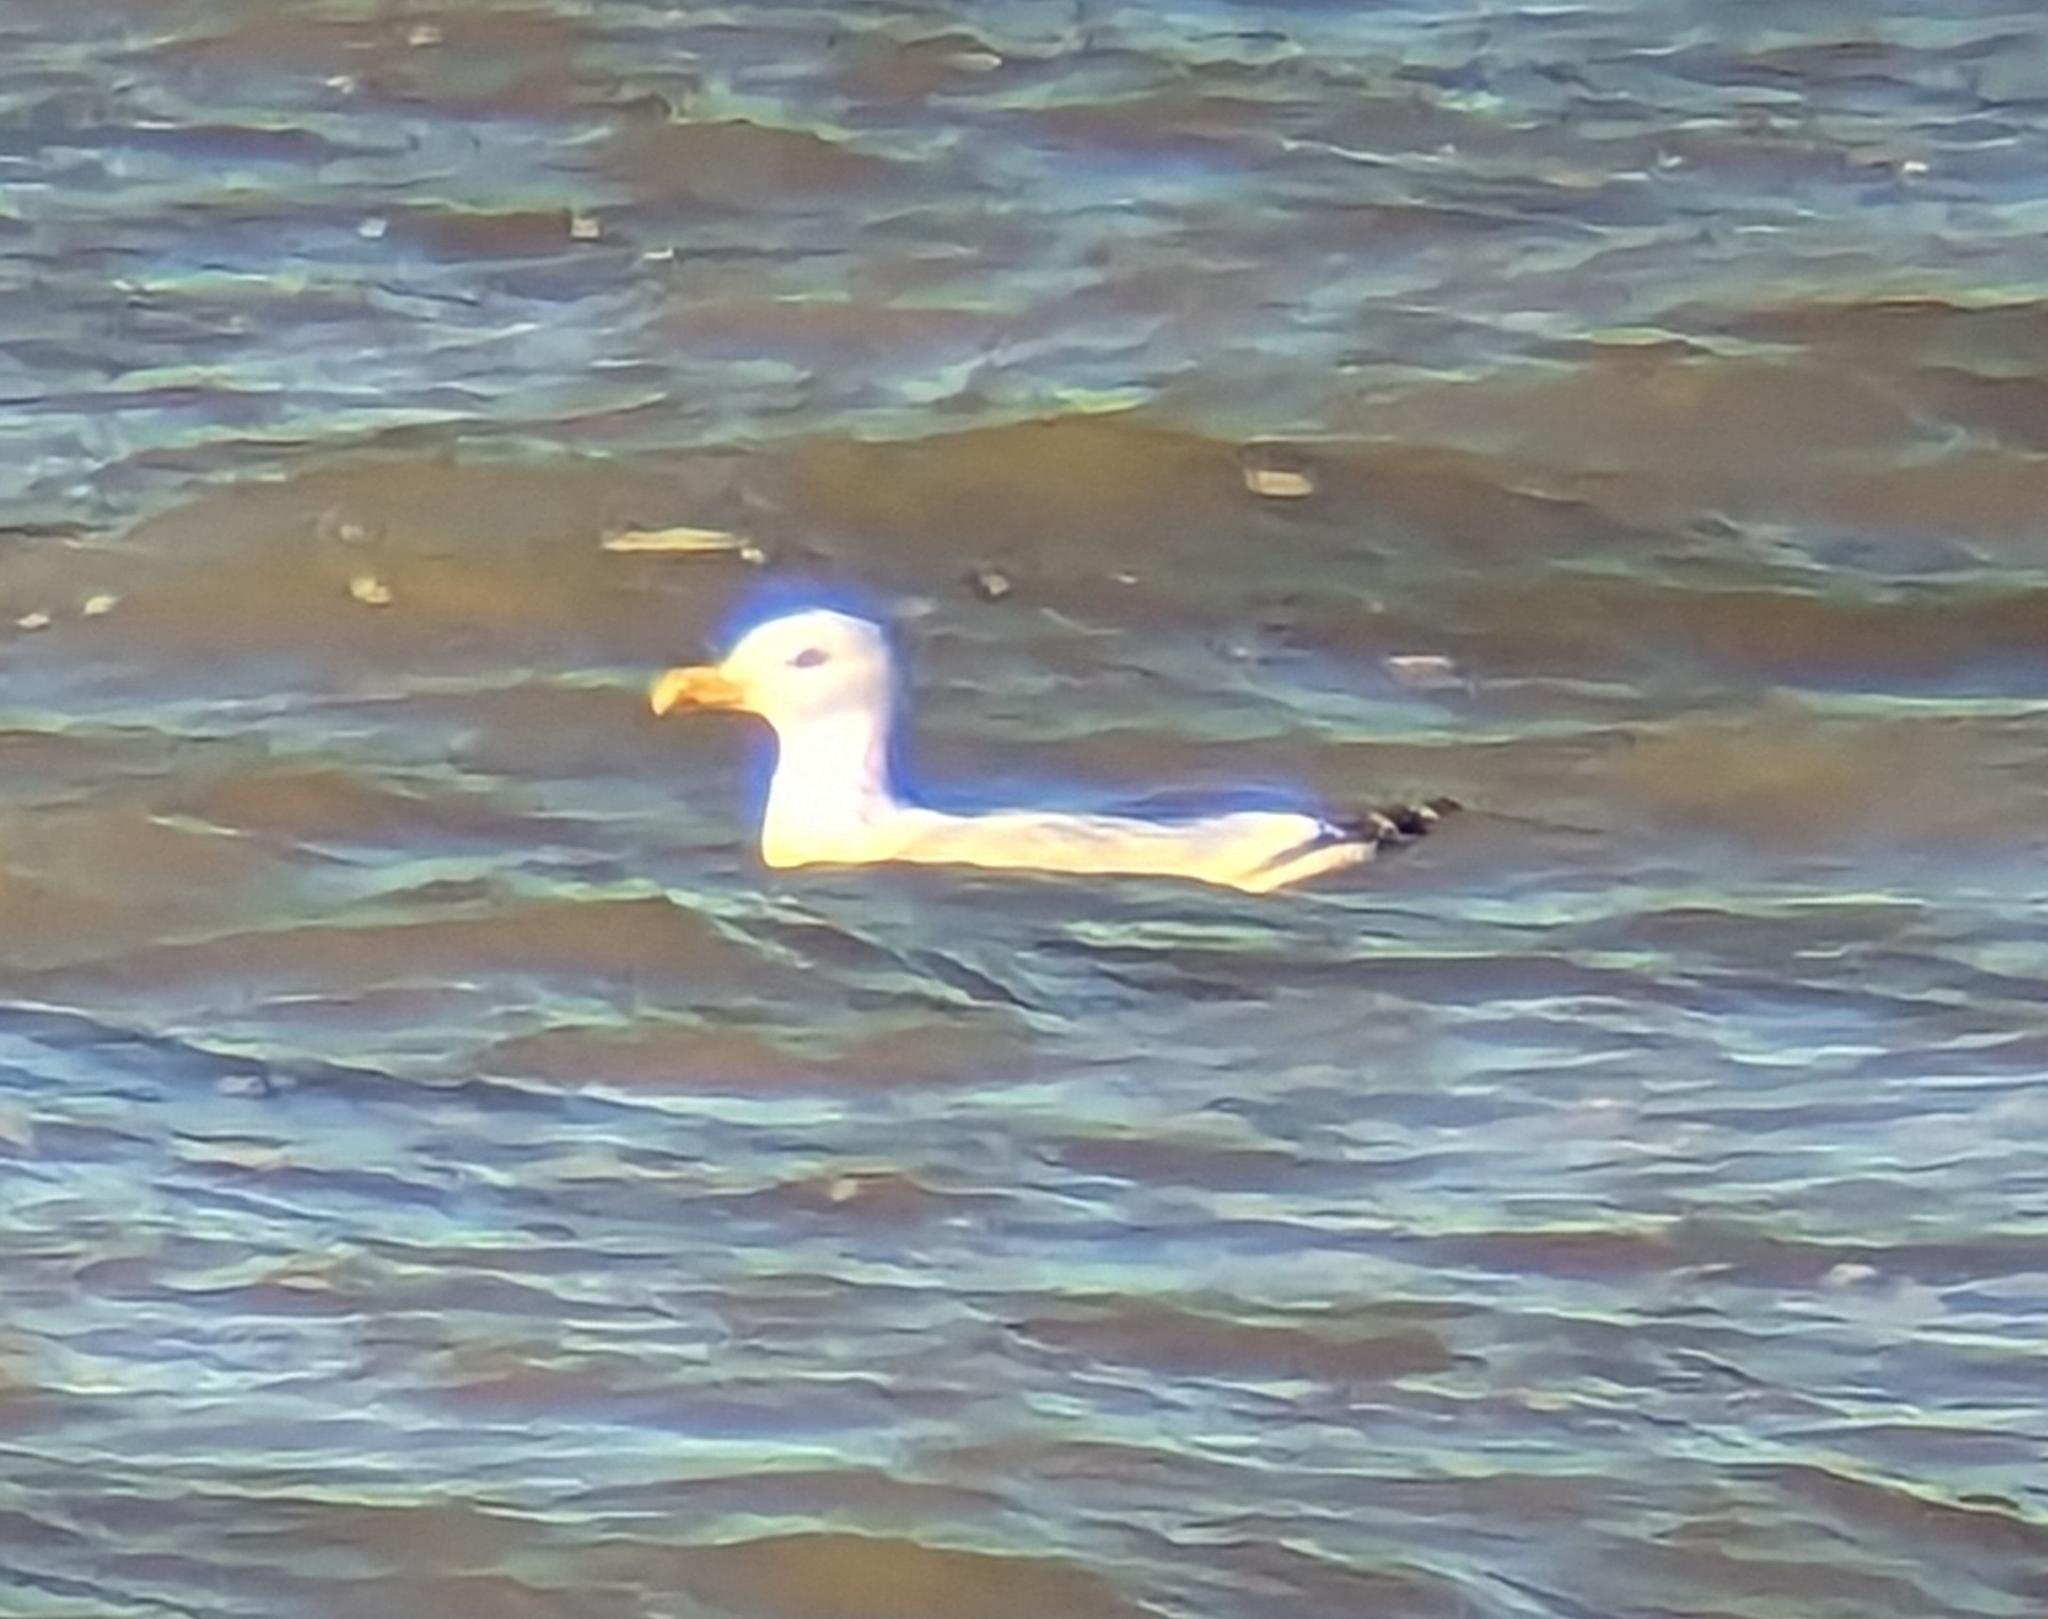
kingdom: Animalia
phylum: Chordata
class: Aves
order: Charadriiformes
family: Laridae
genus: Larus
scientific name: Larus argentatus
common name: Herring gull
